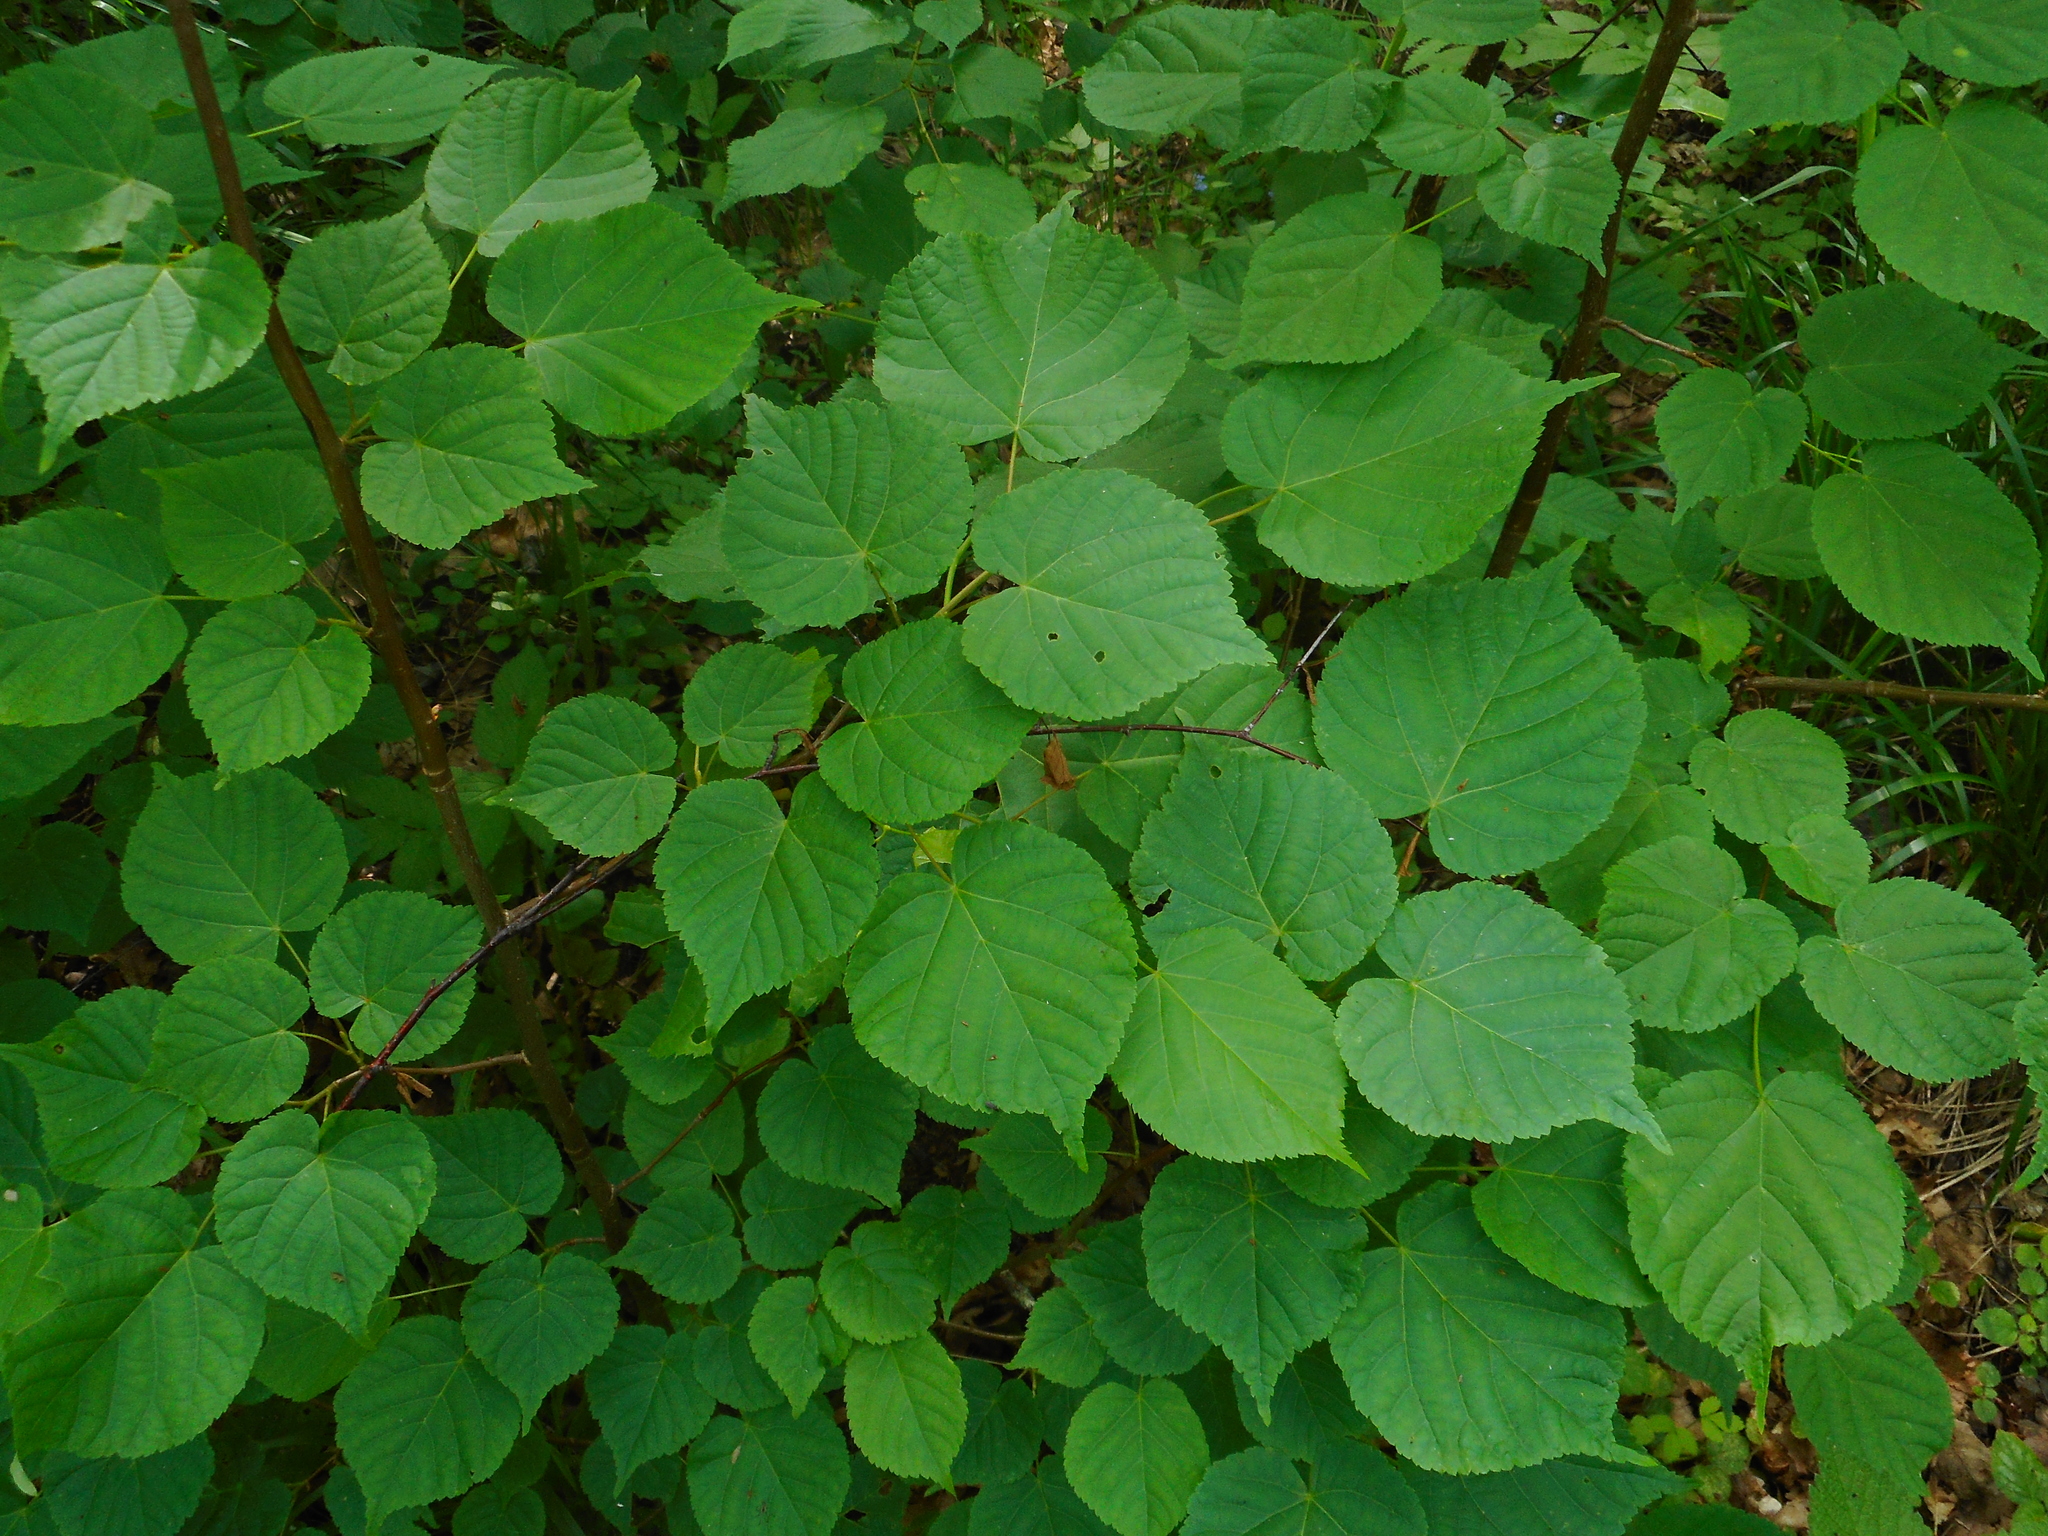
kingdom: Plantae
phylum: Tracheophyta
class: Magnoliopsida
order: Malvales
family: Malvaceae
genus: Tilia
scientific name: Tilia cordata
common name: Small-leaved lime
